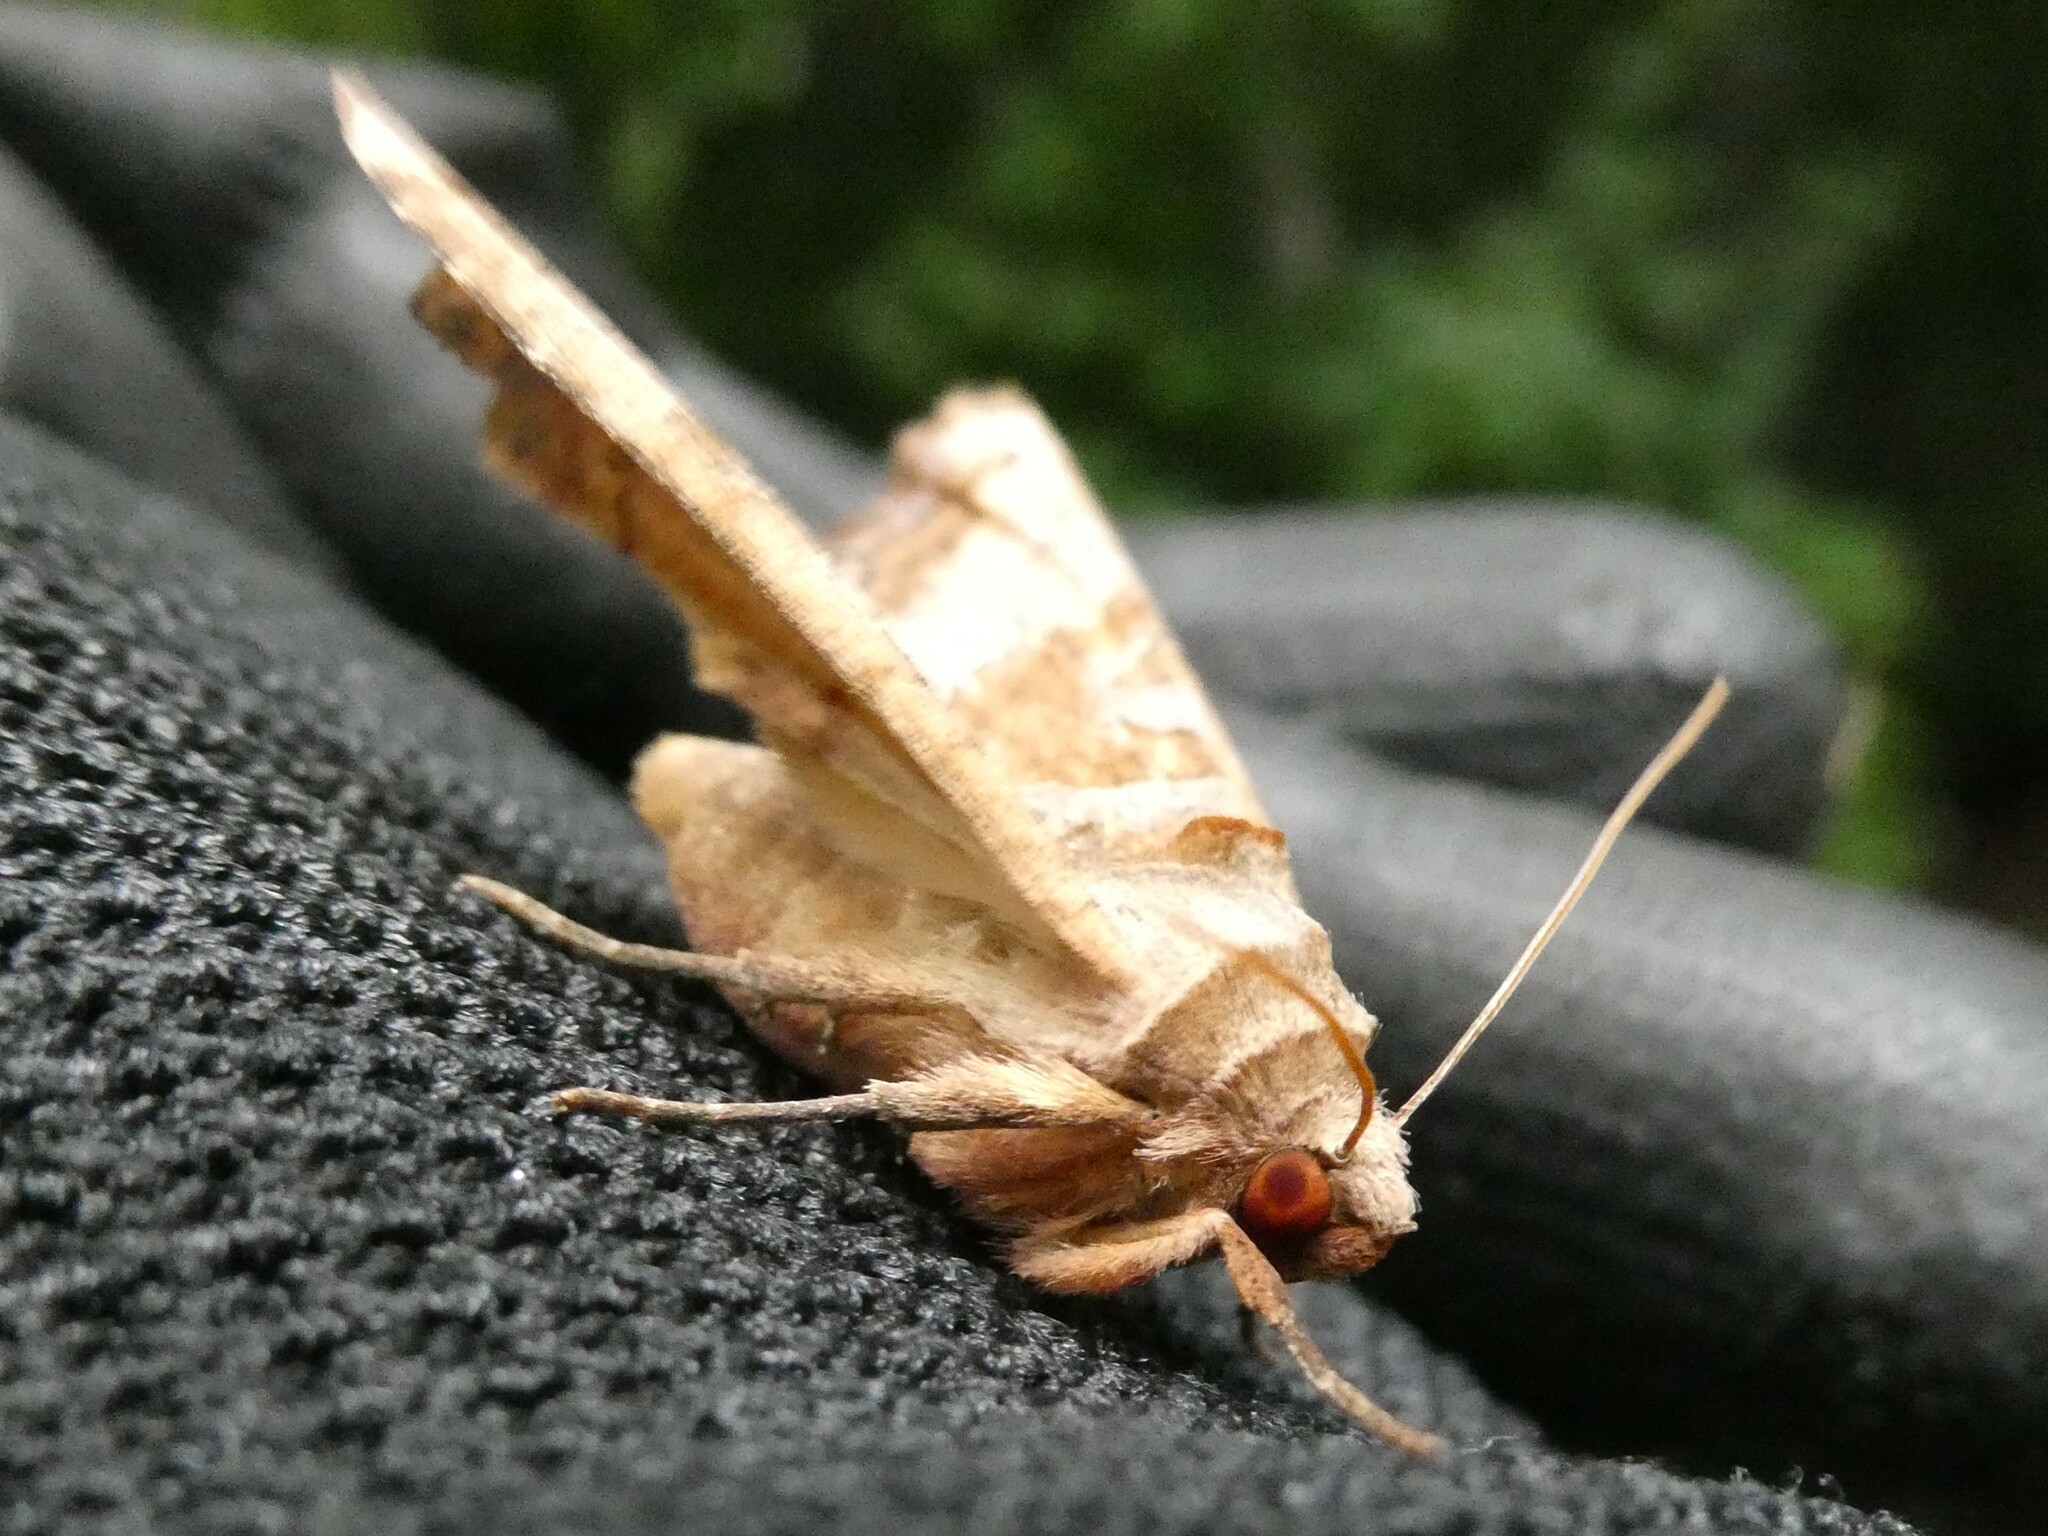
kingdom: Animalia
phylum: Arthropoda
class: Insecta
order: Lepidoptera
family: Noctuidae
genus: Phlogophora
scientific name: Phlogophora periculosa
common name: Brown angle shades
